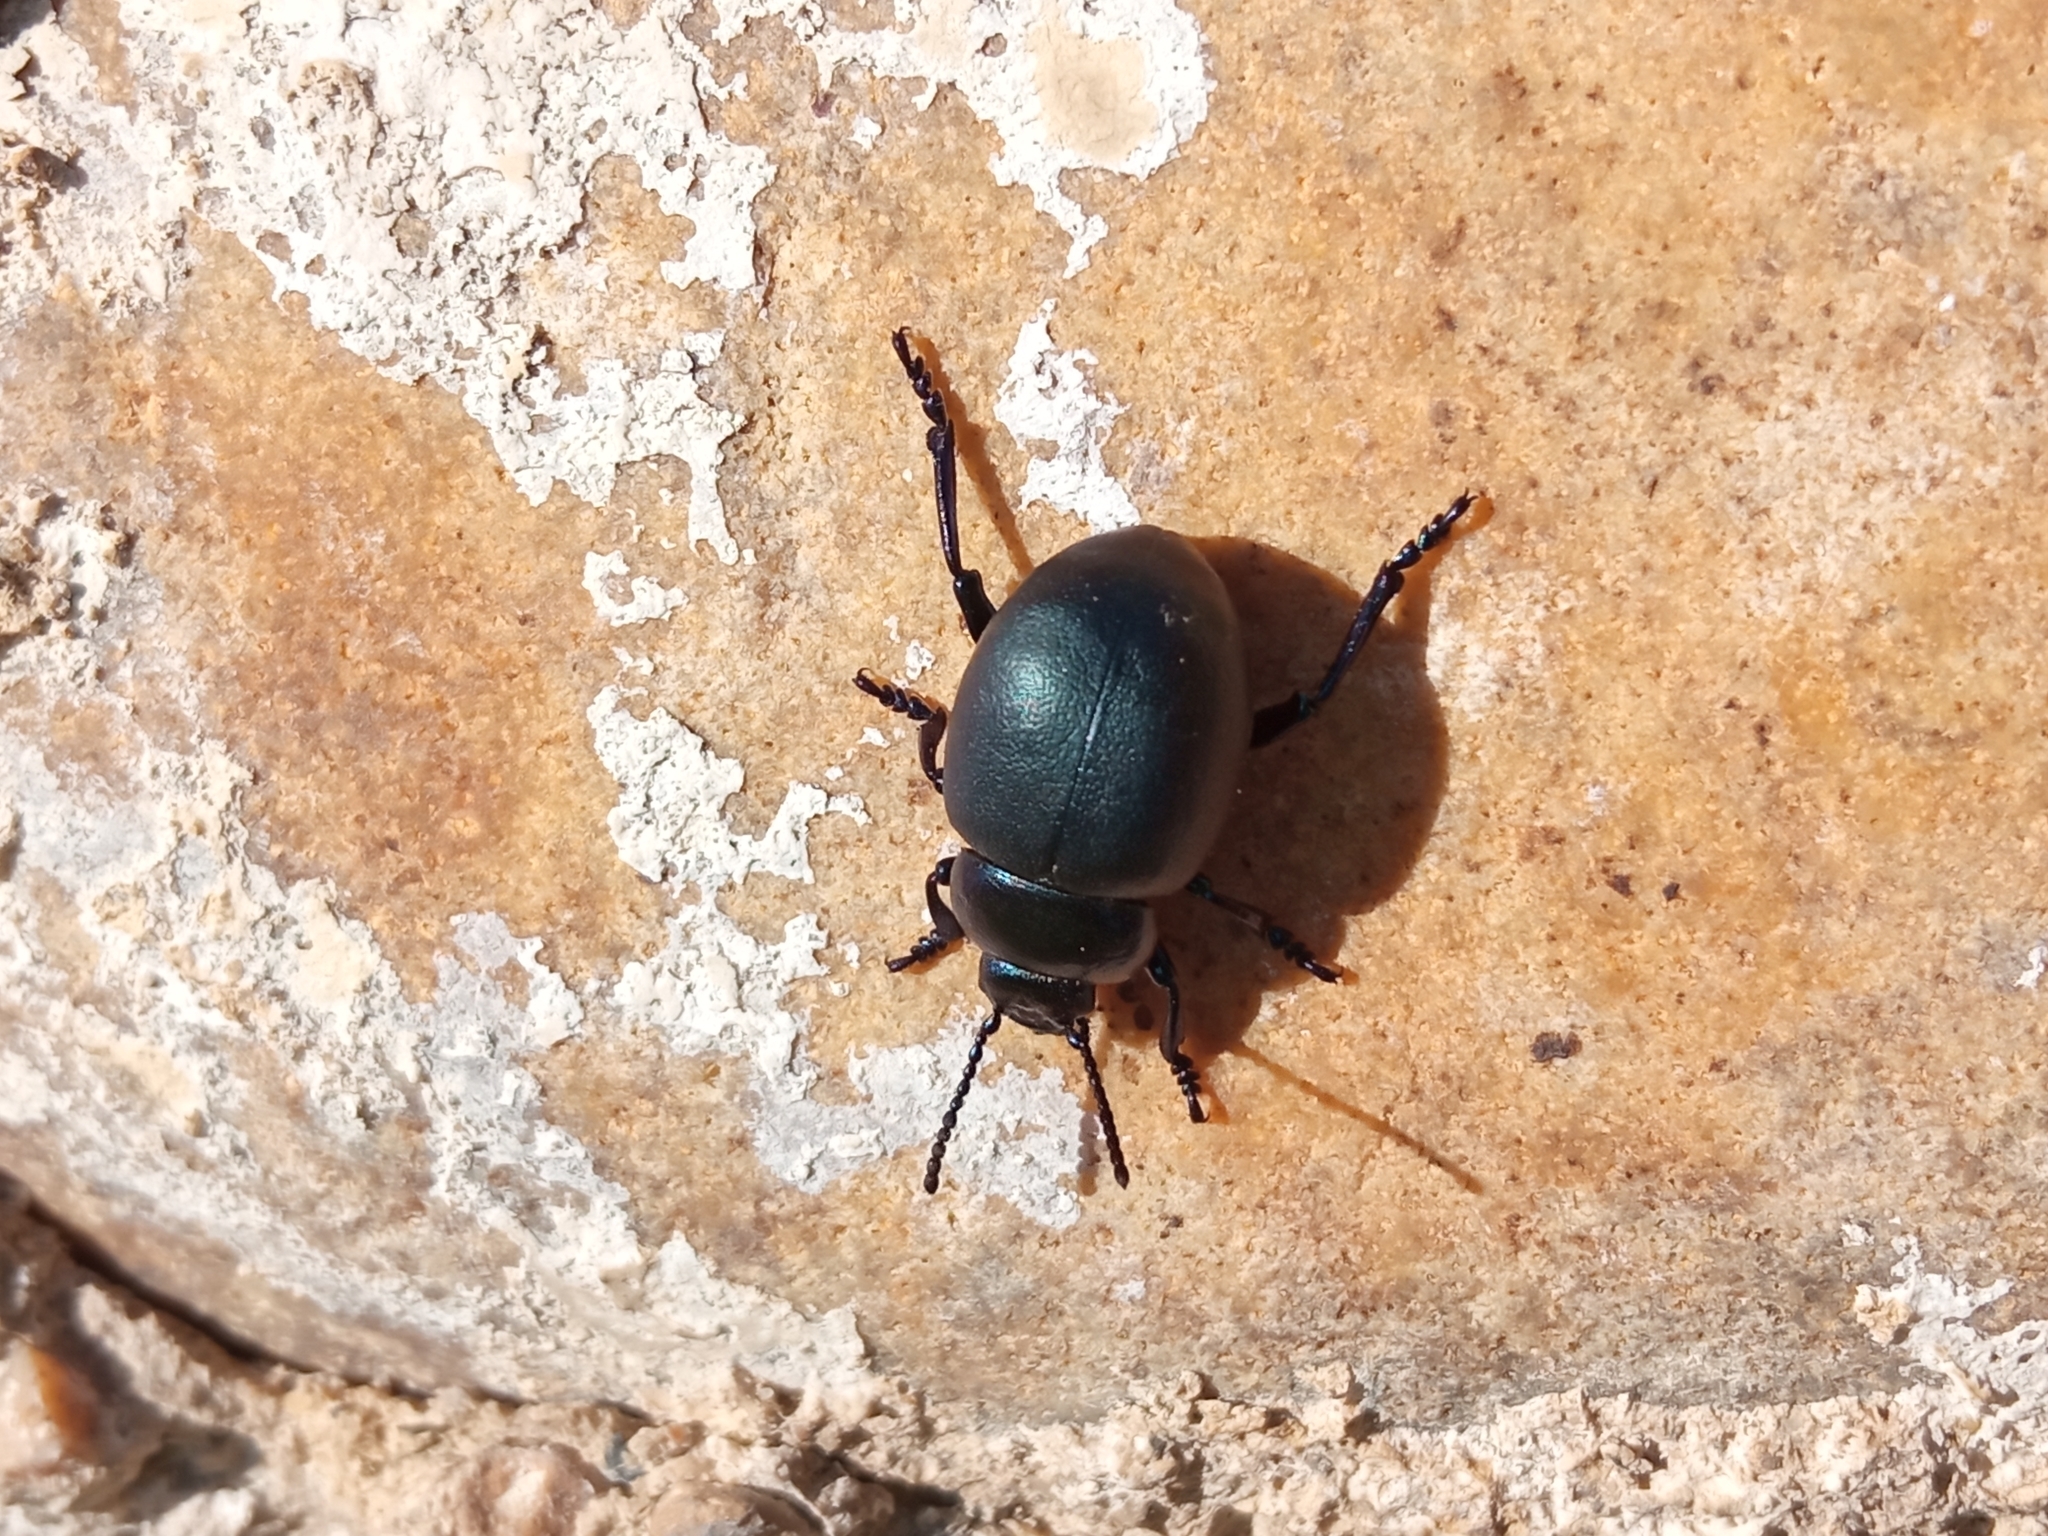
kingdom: Animalia
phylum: Arthropoda
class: Insecta
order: Coleoptera
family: Chrysomelidae
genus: Timarcha
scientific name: Timarcha tenebricosa
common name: Bloody-nosed beetle
